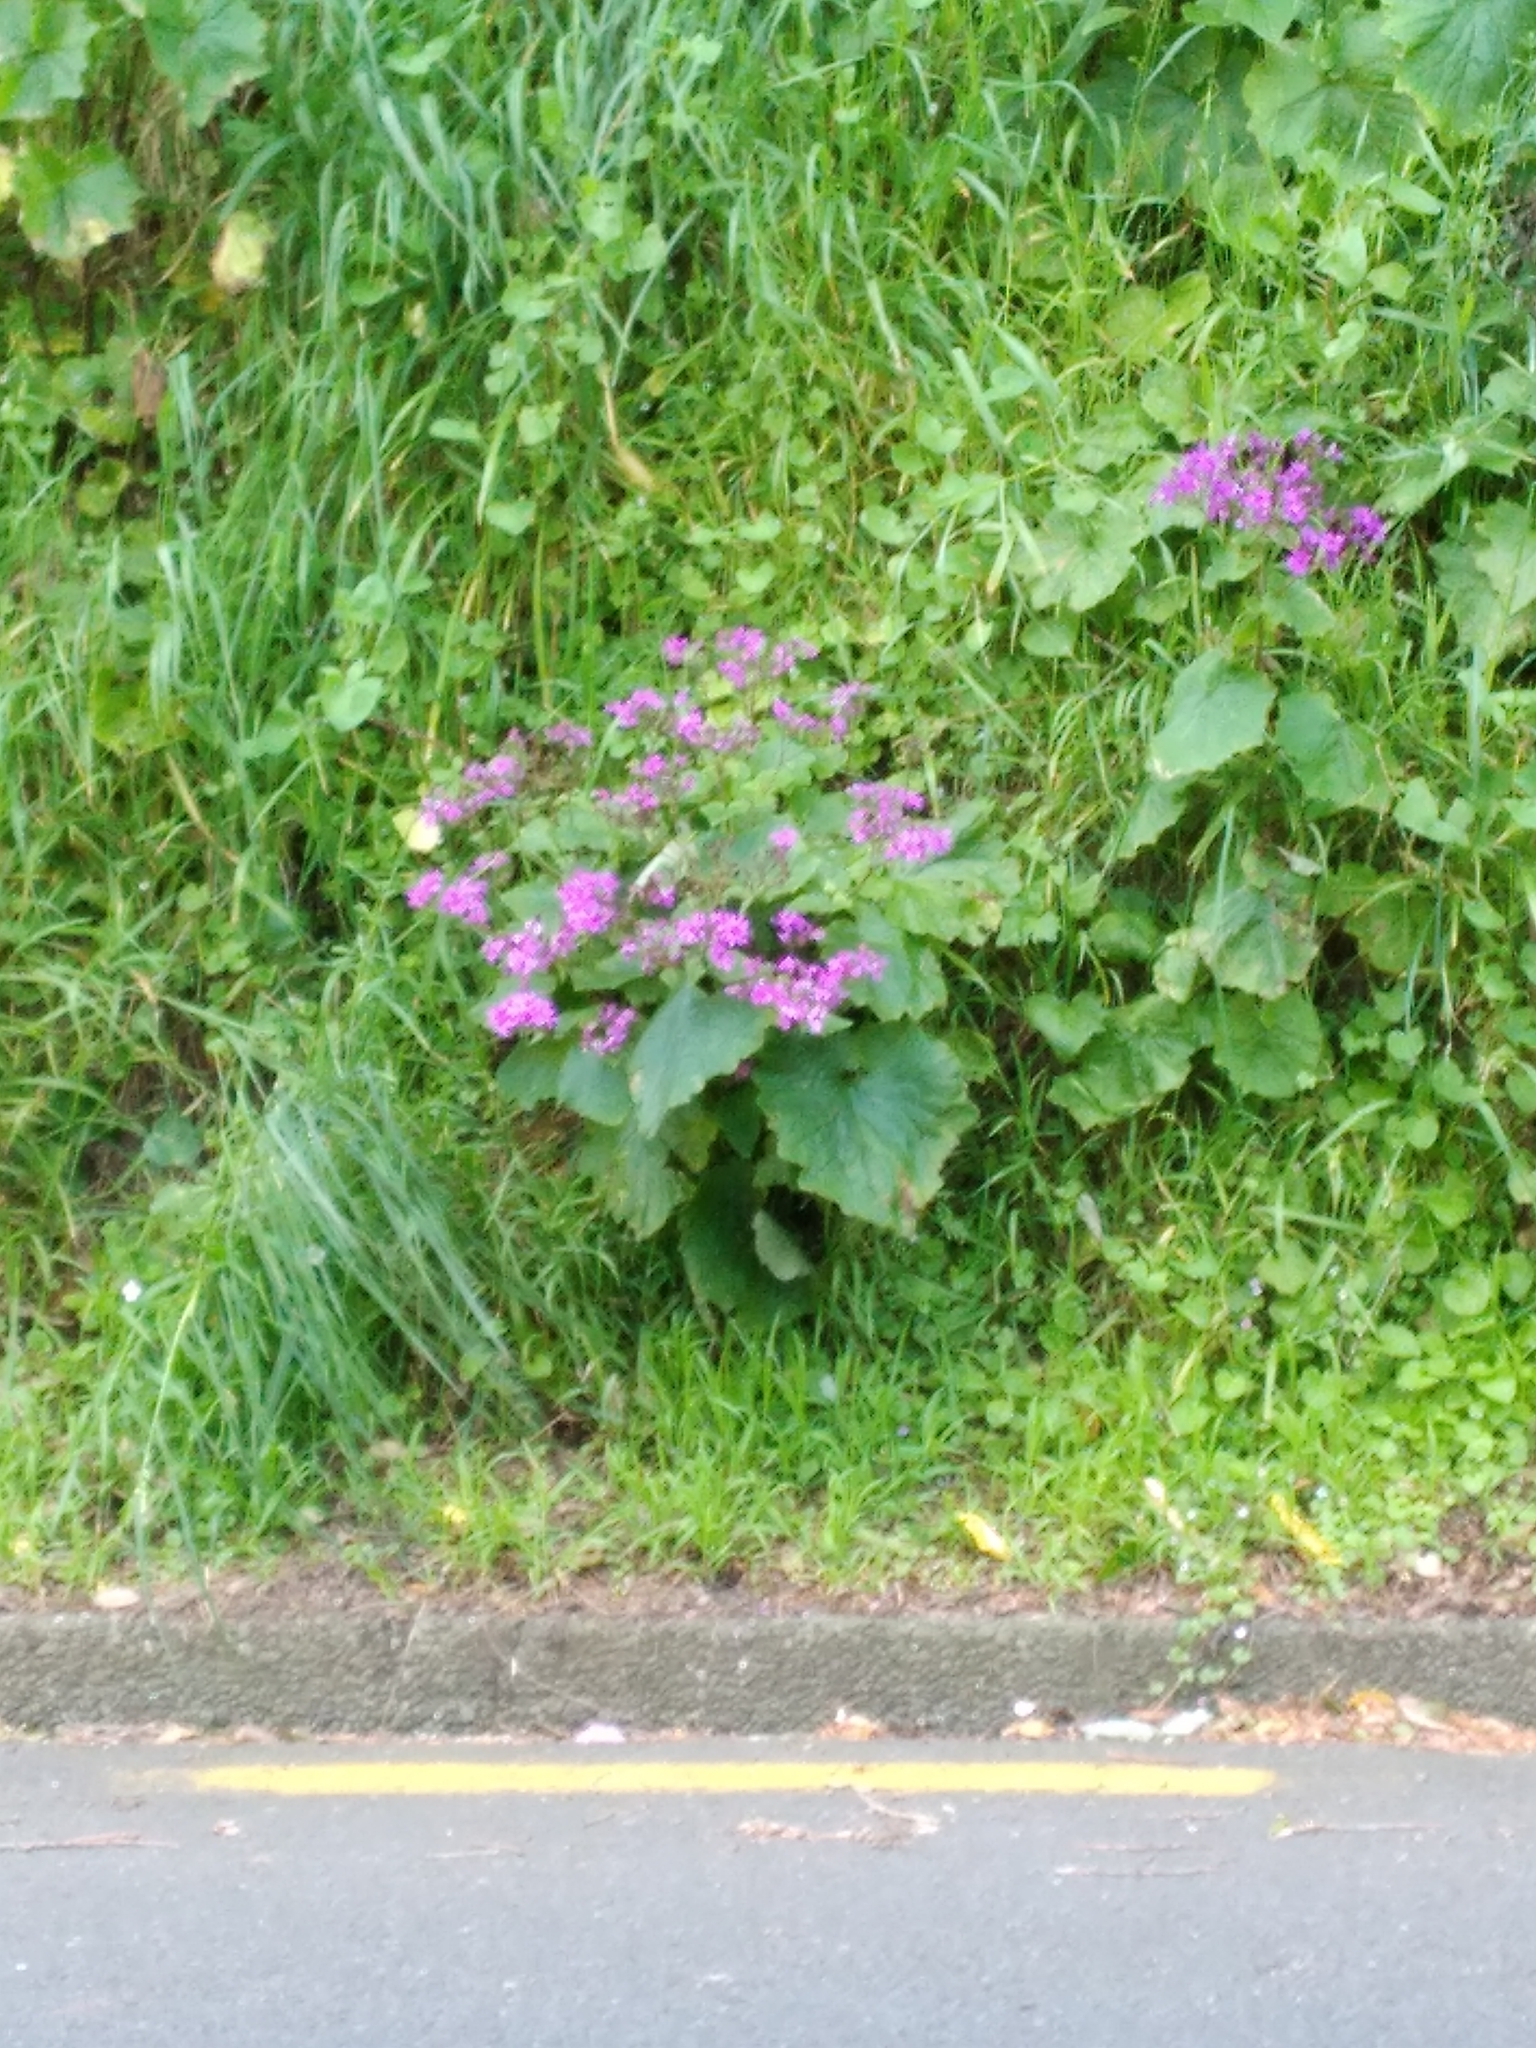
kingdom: Plantae
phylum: Tracheophyta
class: Magnoliopsida
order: Asterales
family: Asteraceae
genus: Pericallis
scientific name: Pericallis hybrida
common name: Cineraria
